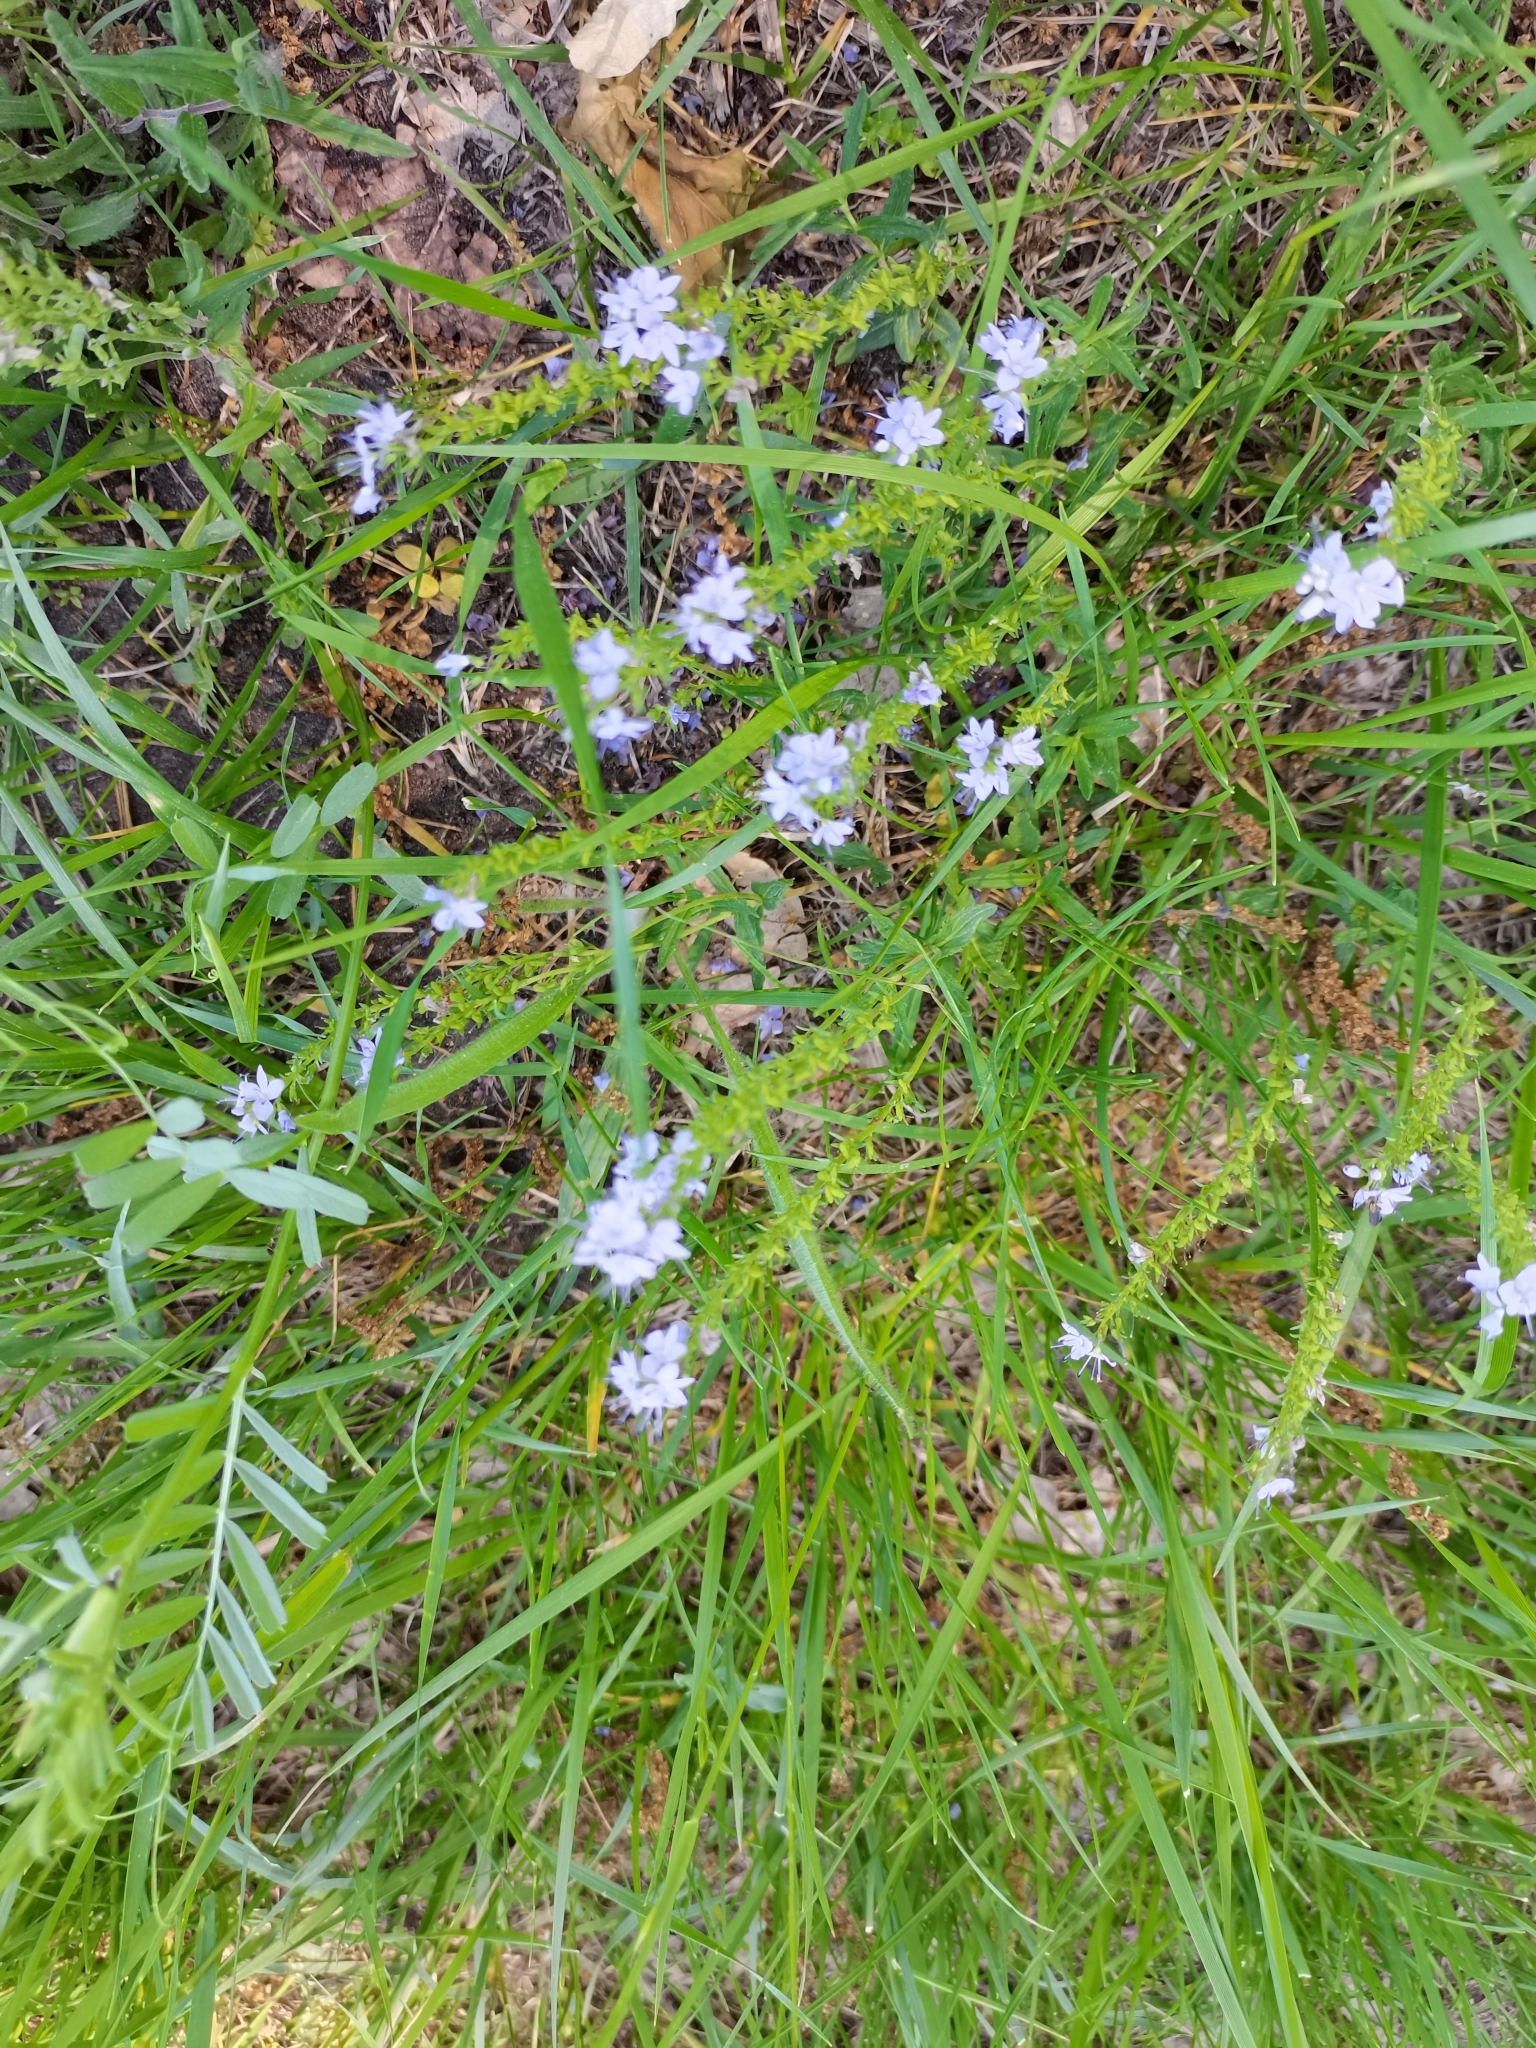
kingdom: Plantae
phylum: Tracheophyta
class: Magnoliopsida
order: Lamiales
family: Plantaginaceae
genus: Veronica
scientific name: Veronica prostrata
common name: Prostrate speedwell
